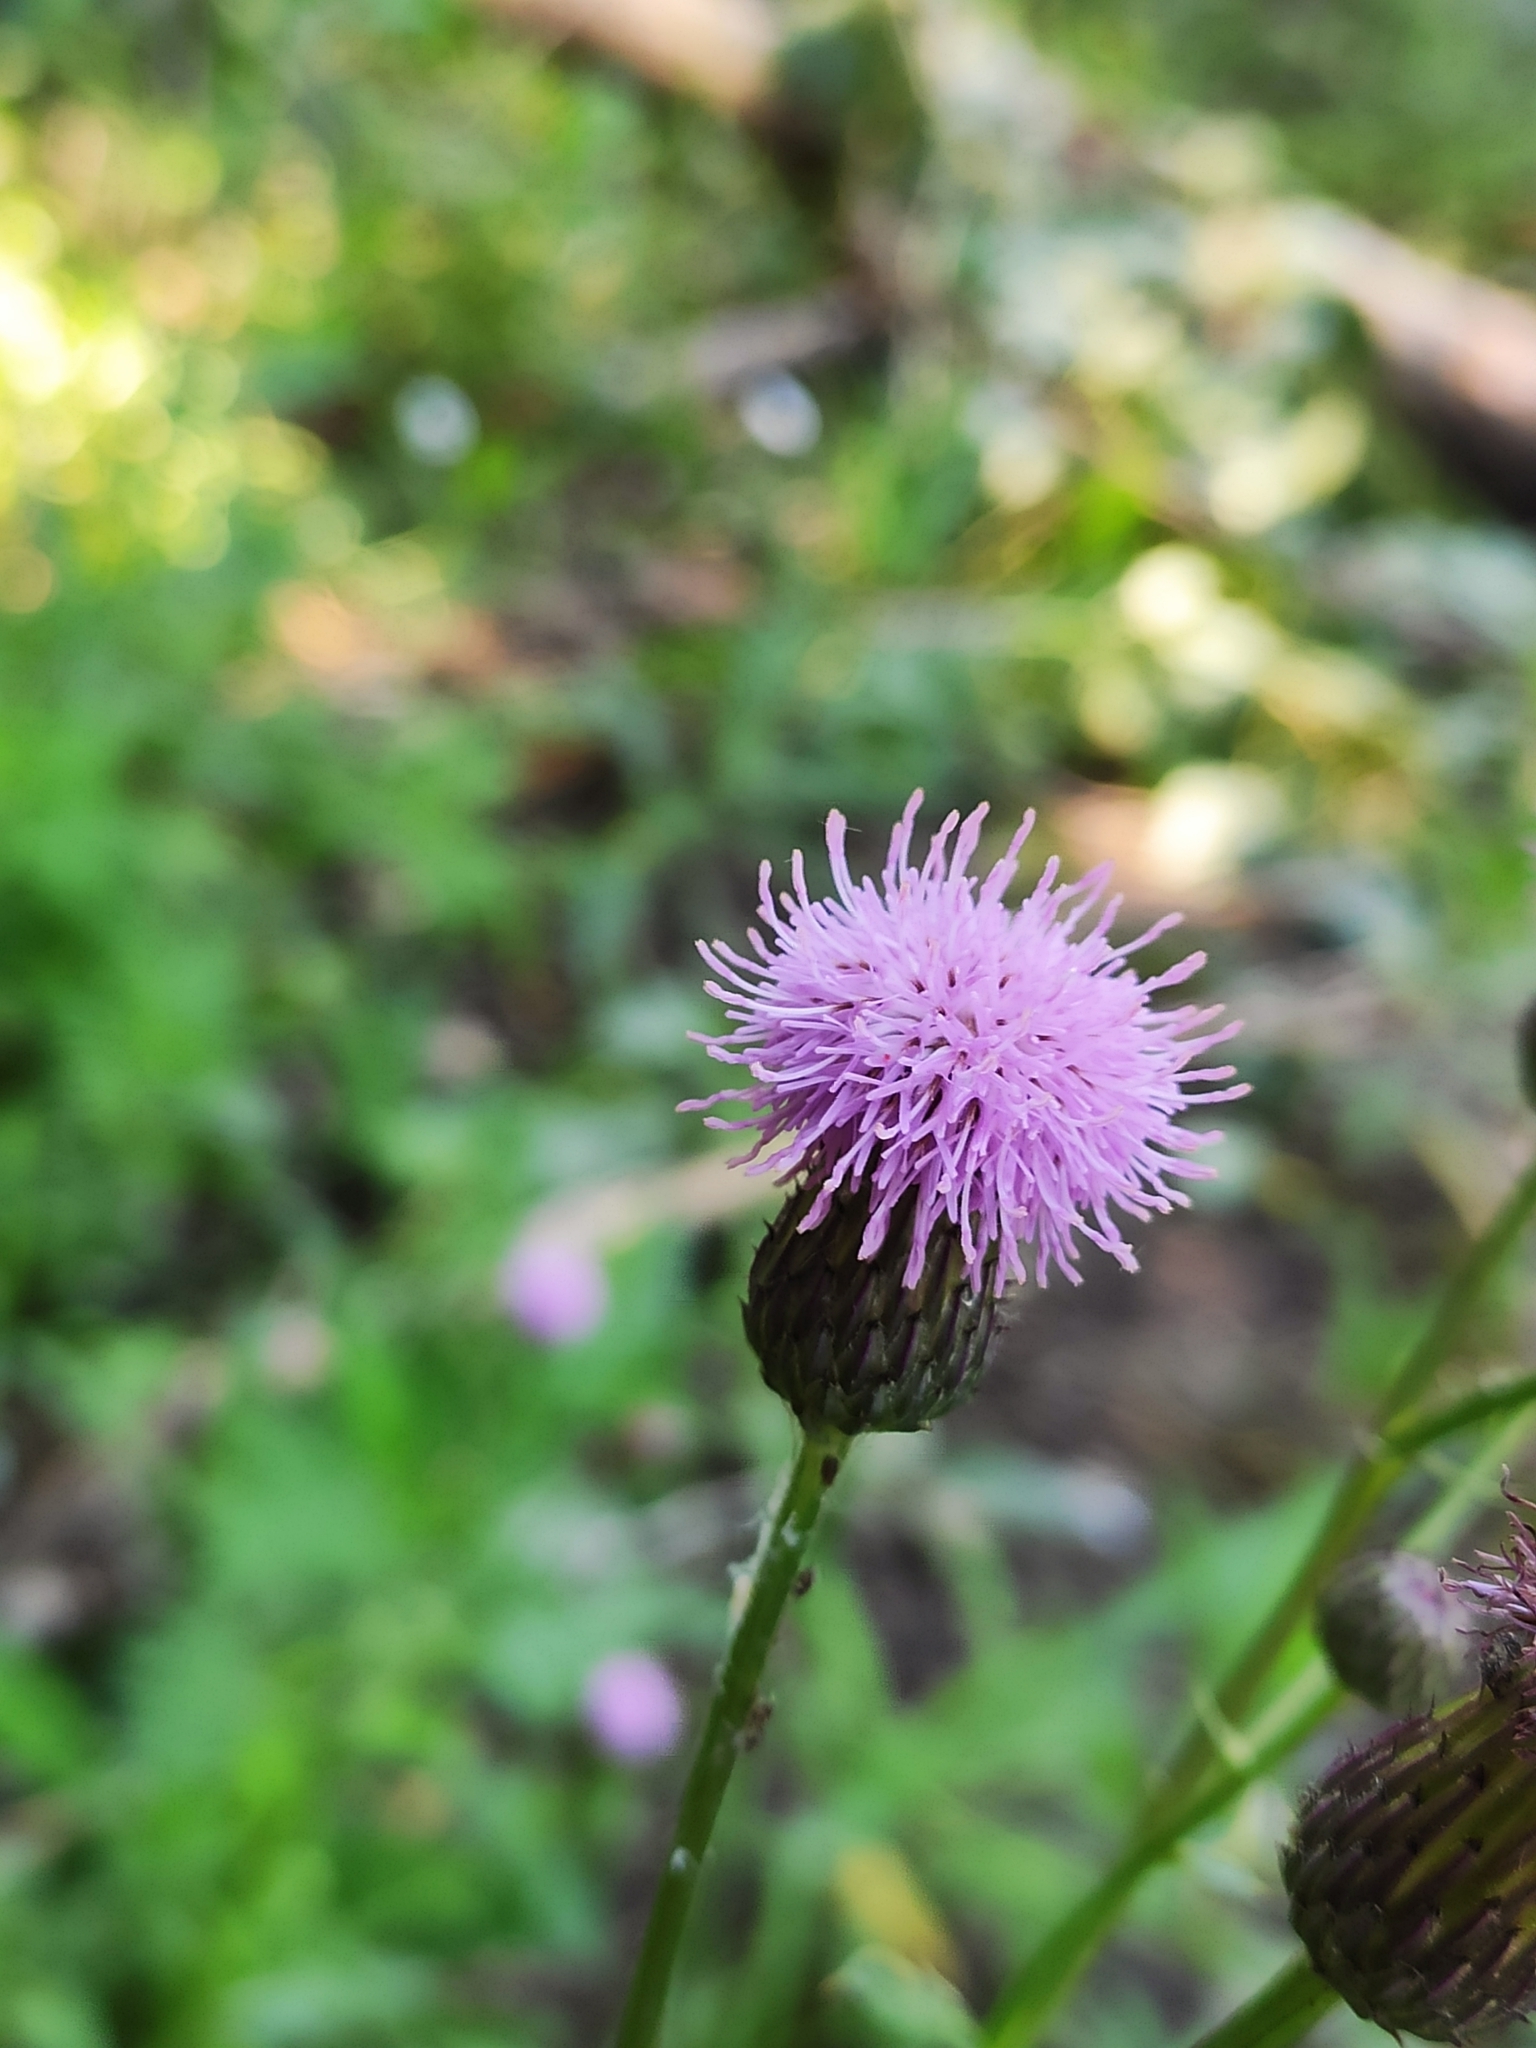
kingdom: Plantae
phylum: Tracheophyta
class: Magnoliopsida
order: Asterales
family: Asteraceae
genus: Cirsium
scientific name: Cirsium arvense
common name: Creeping thistle
